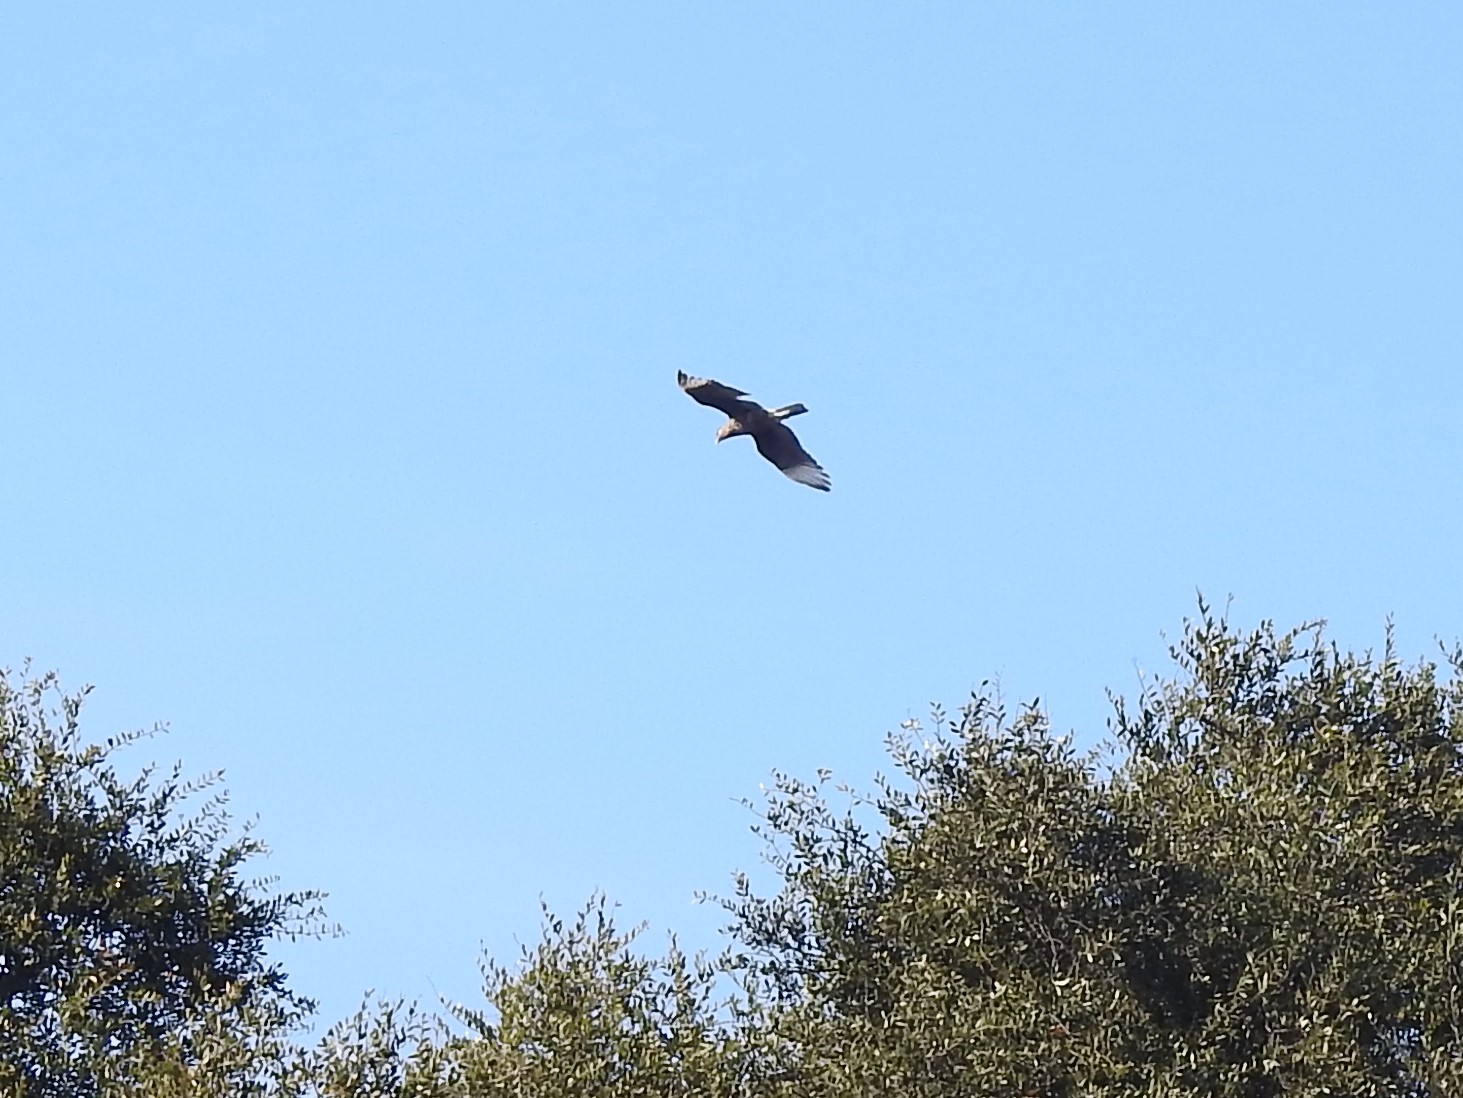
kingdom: Animalia
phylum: Chordata
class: Aves
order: Falconiformes
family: Falconidae
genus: Caracara
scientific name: Caracara plancus
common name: Southern caracara
